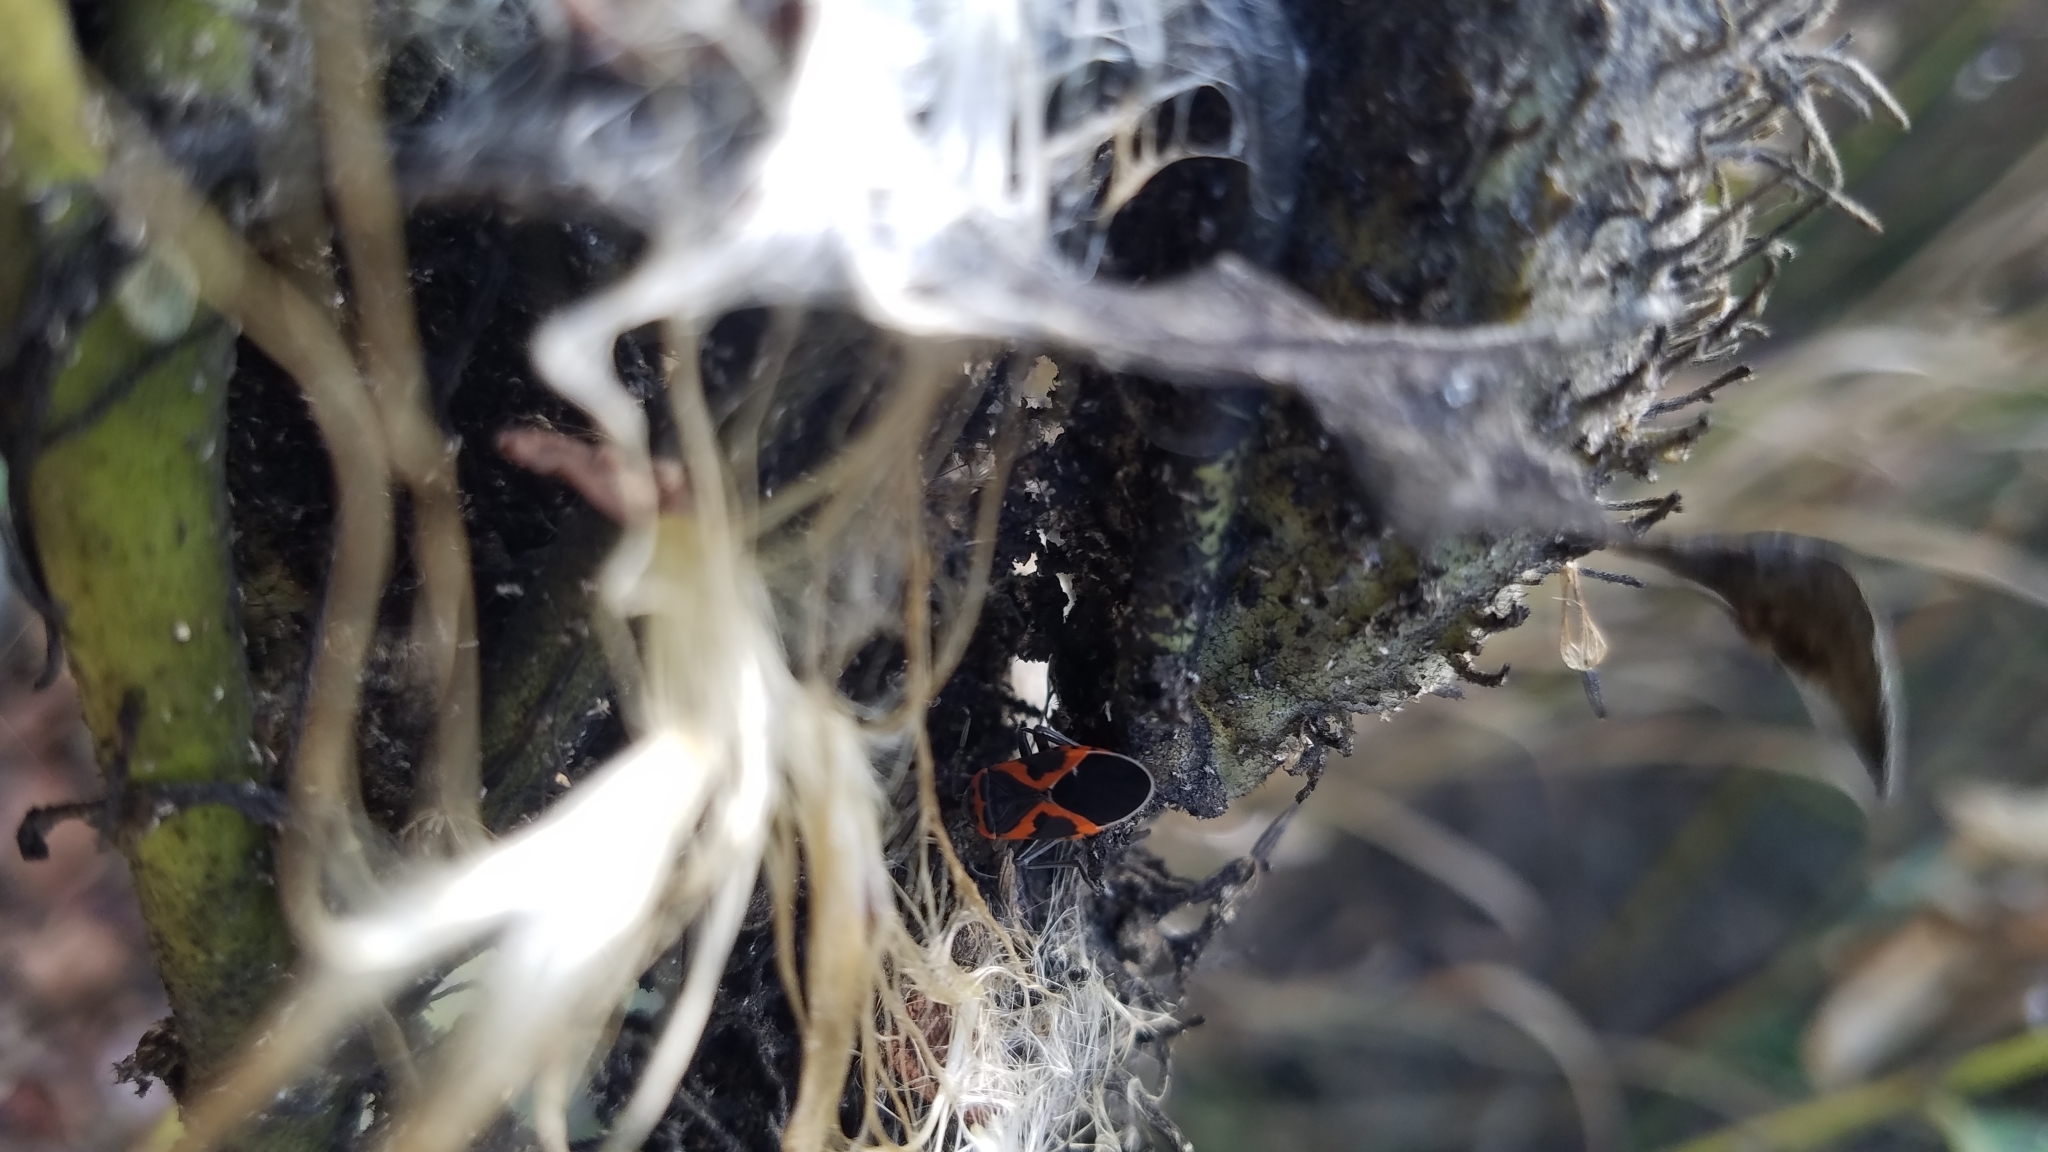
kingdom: Animalia
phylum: Arthropoda
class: Insecta
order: Hemiptera
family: Lygaeidae
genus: Lygaeus
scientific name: Lygaeus kalmii
